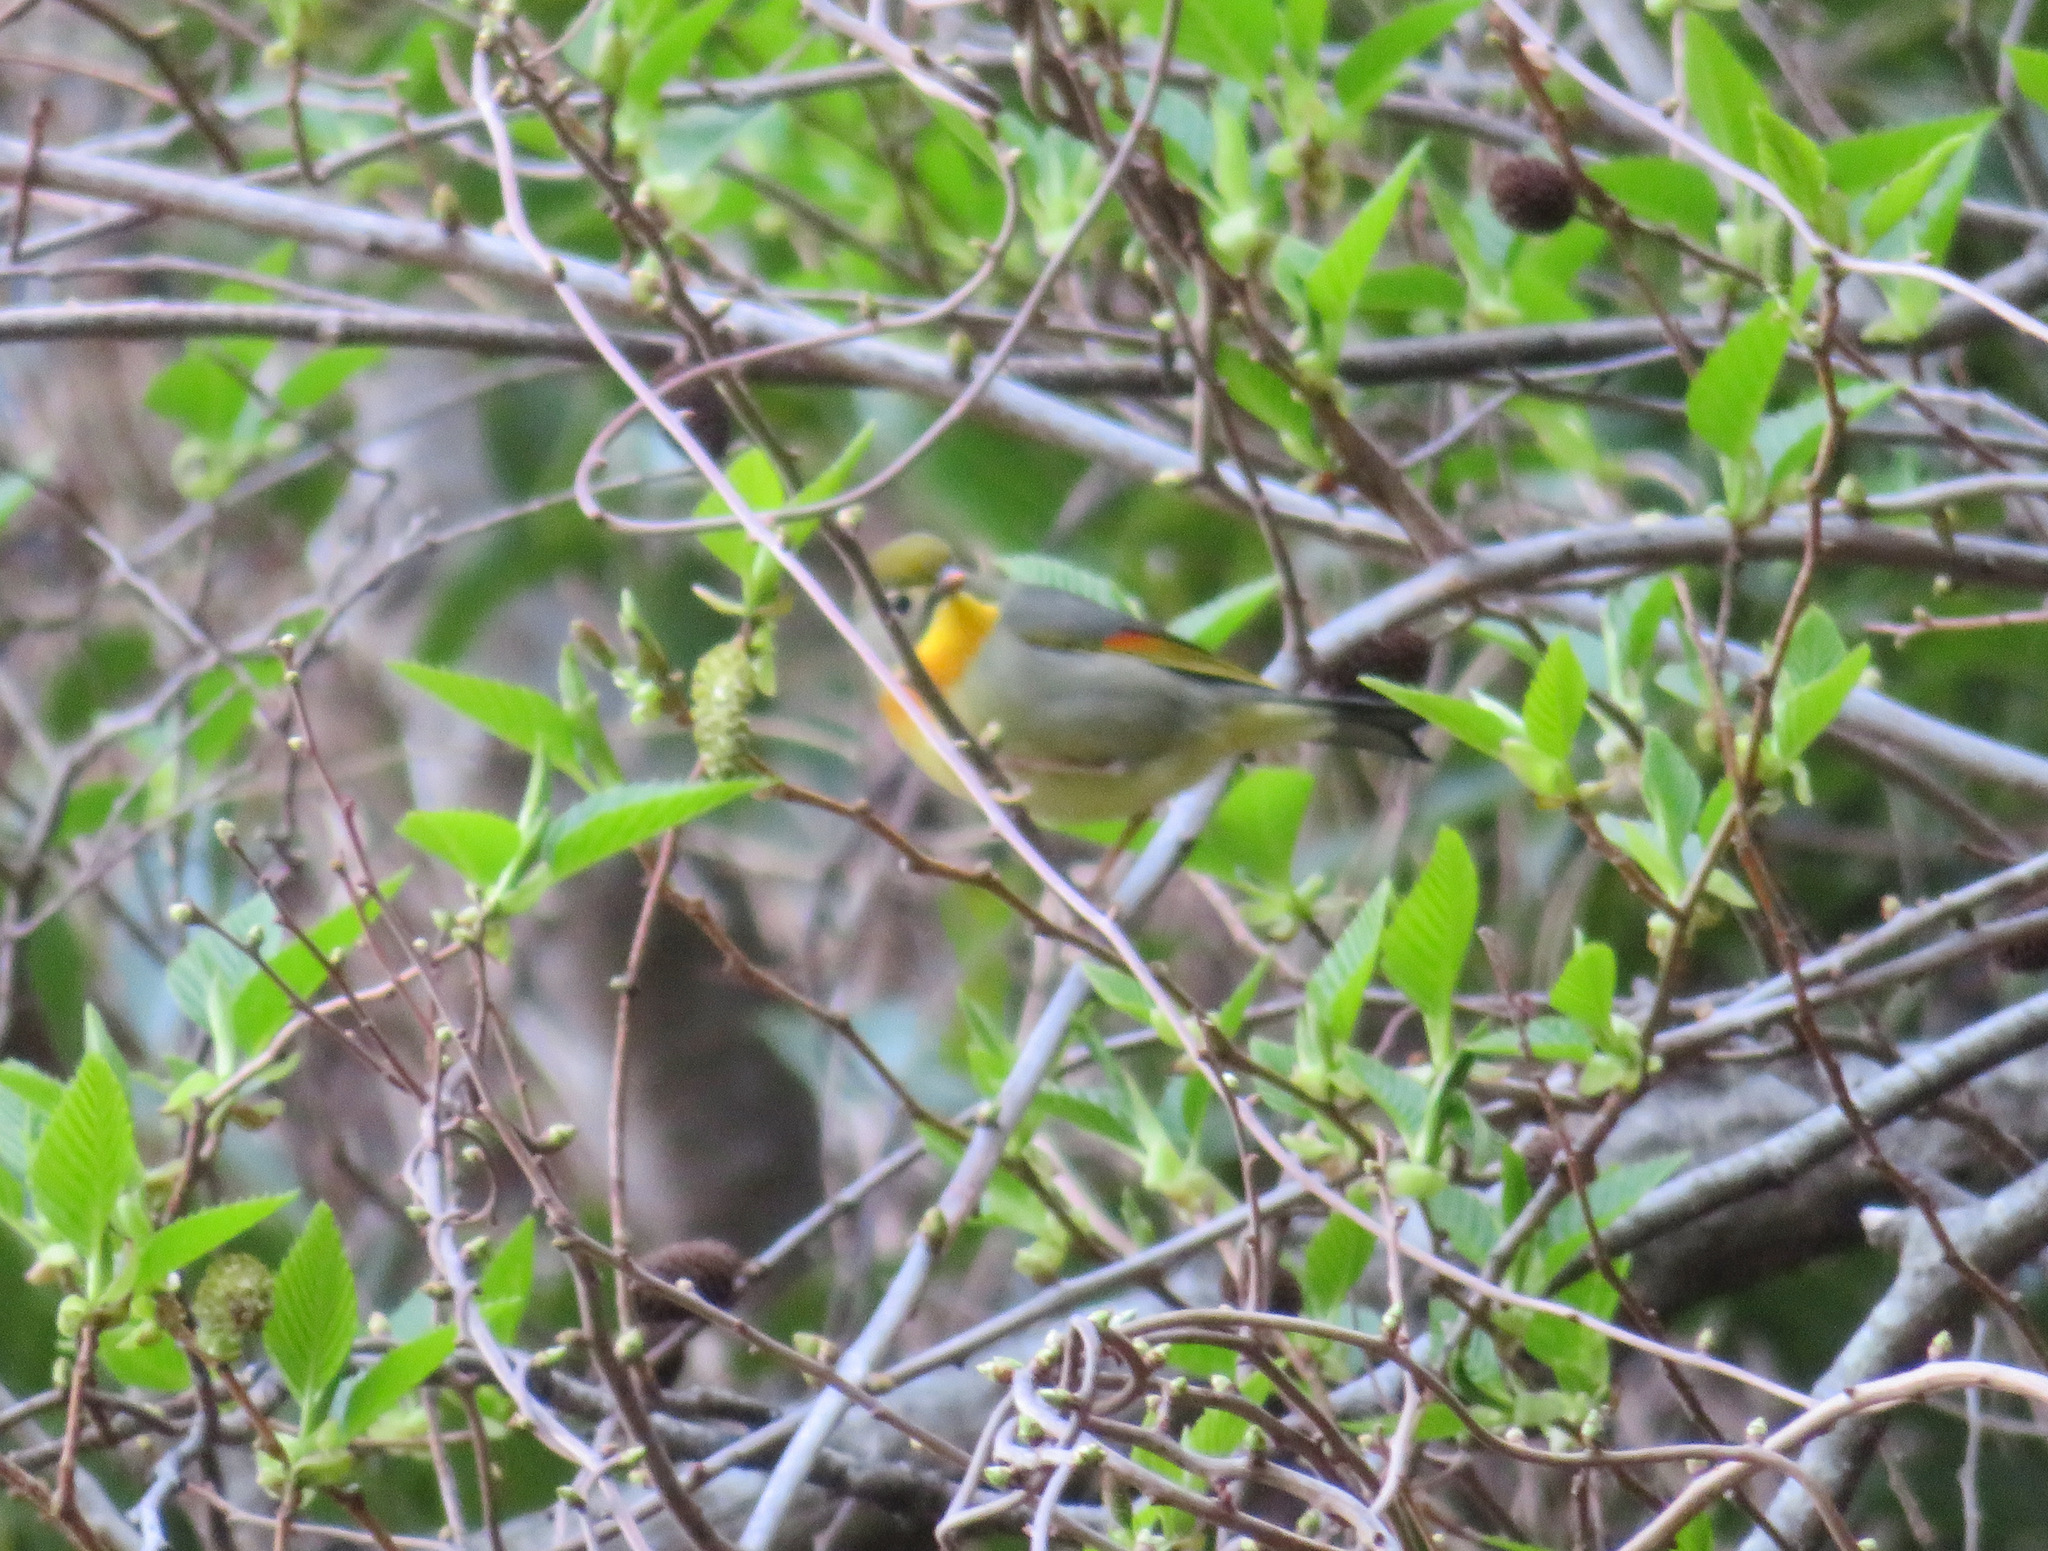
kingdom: Animalia
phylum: Chordata
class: Aves
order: Passeriformes
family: Leiothrichidae
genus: Leiothrix
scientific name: Leiothrix lutea
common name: Red-billed leiothrix
